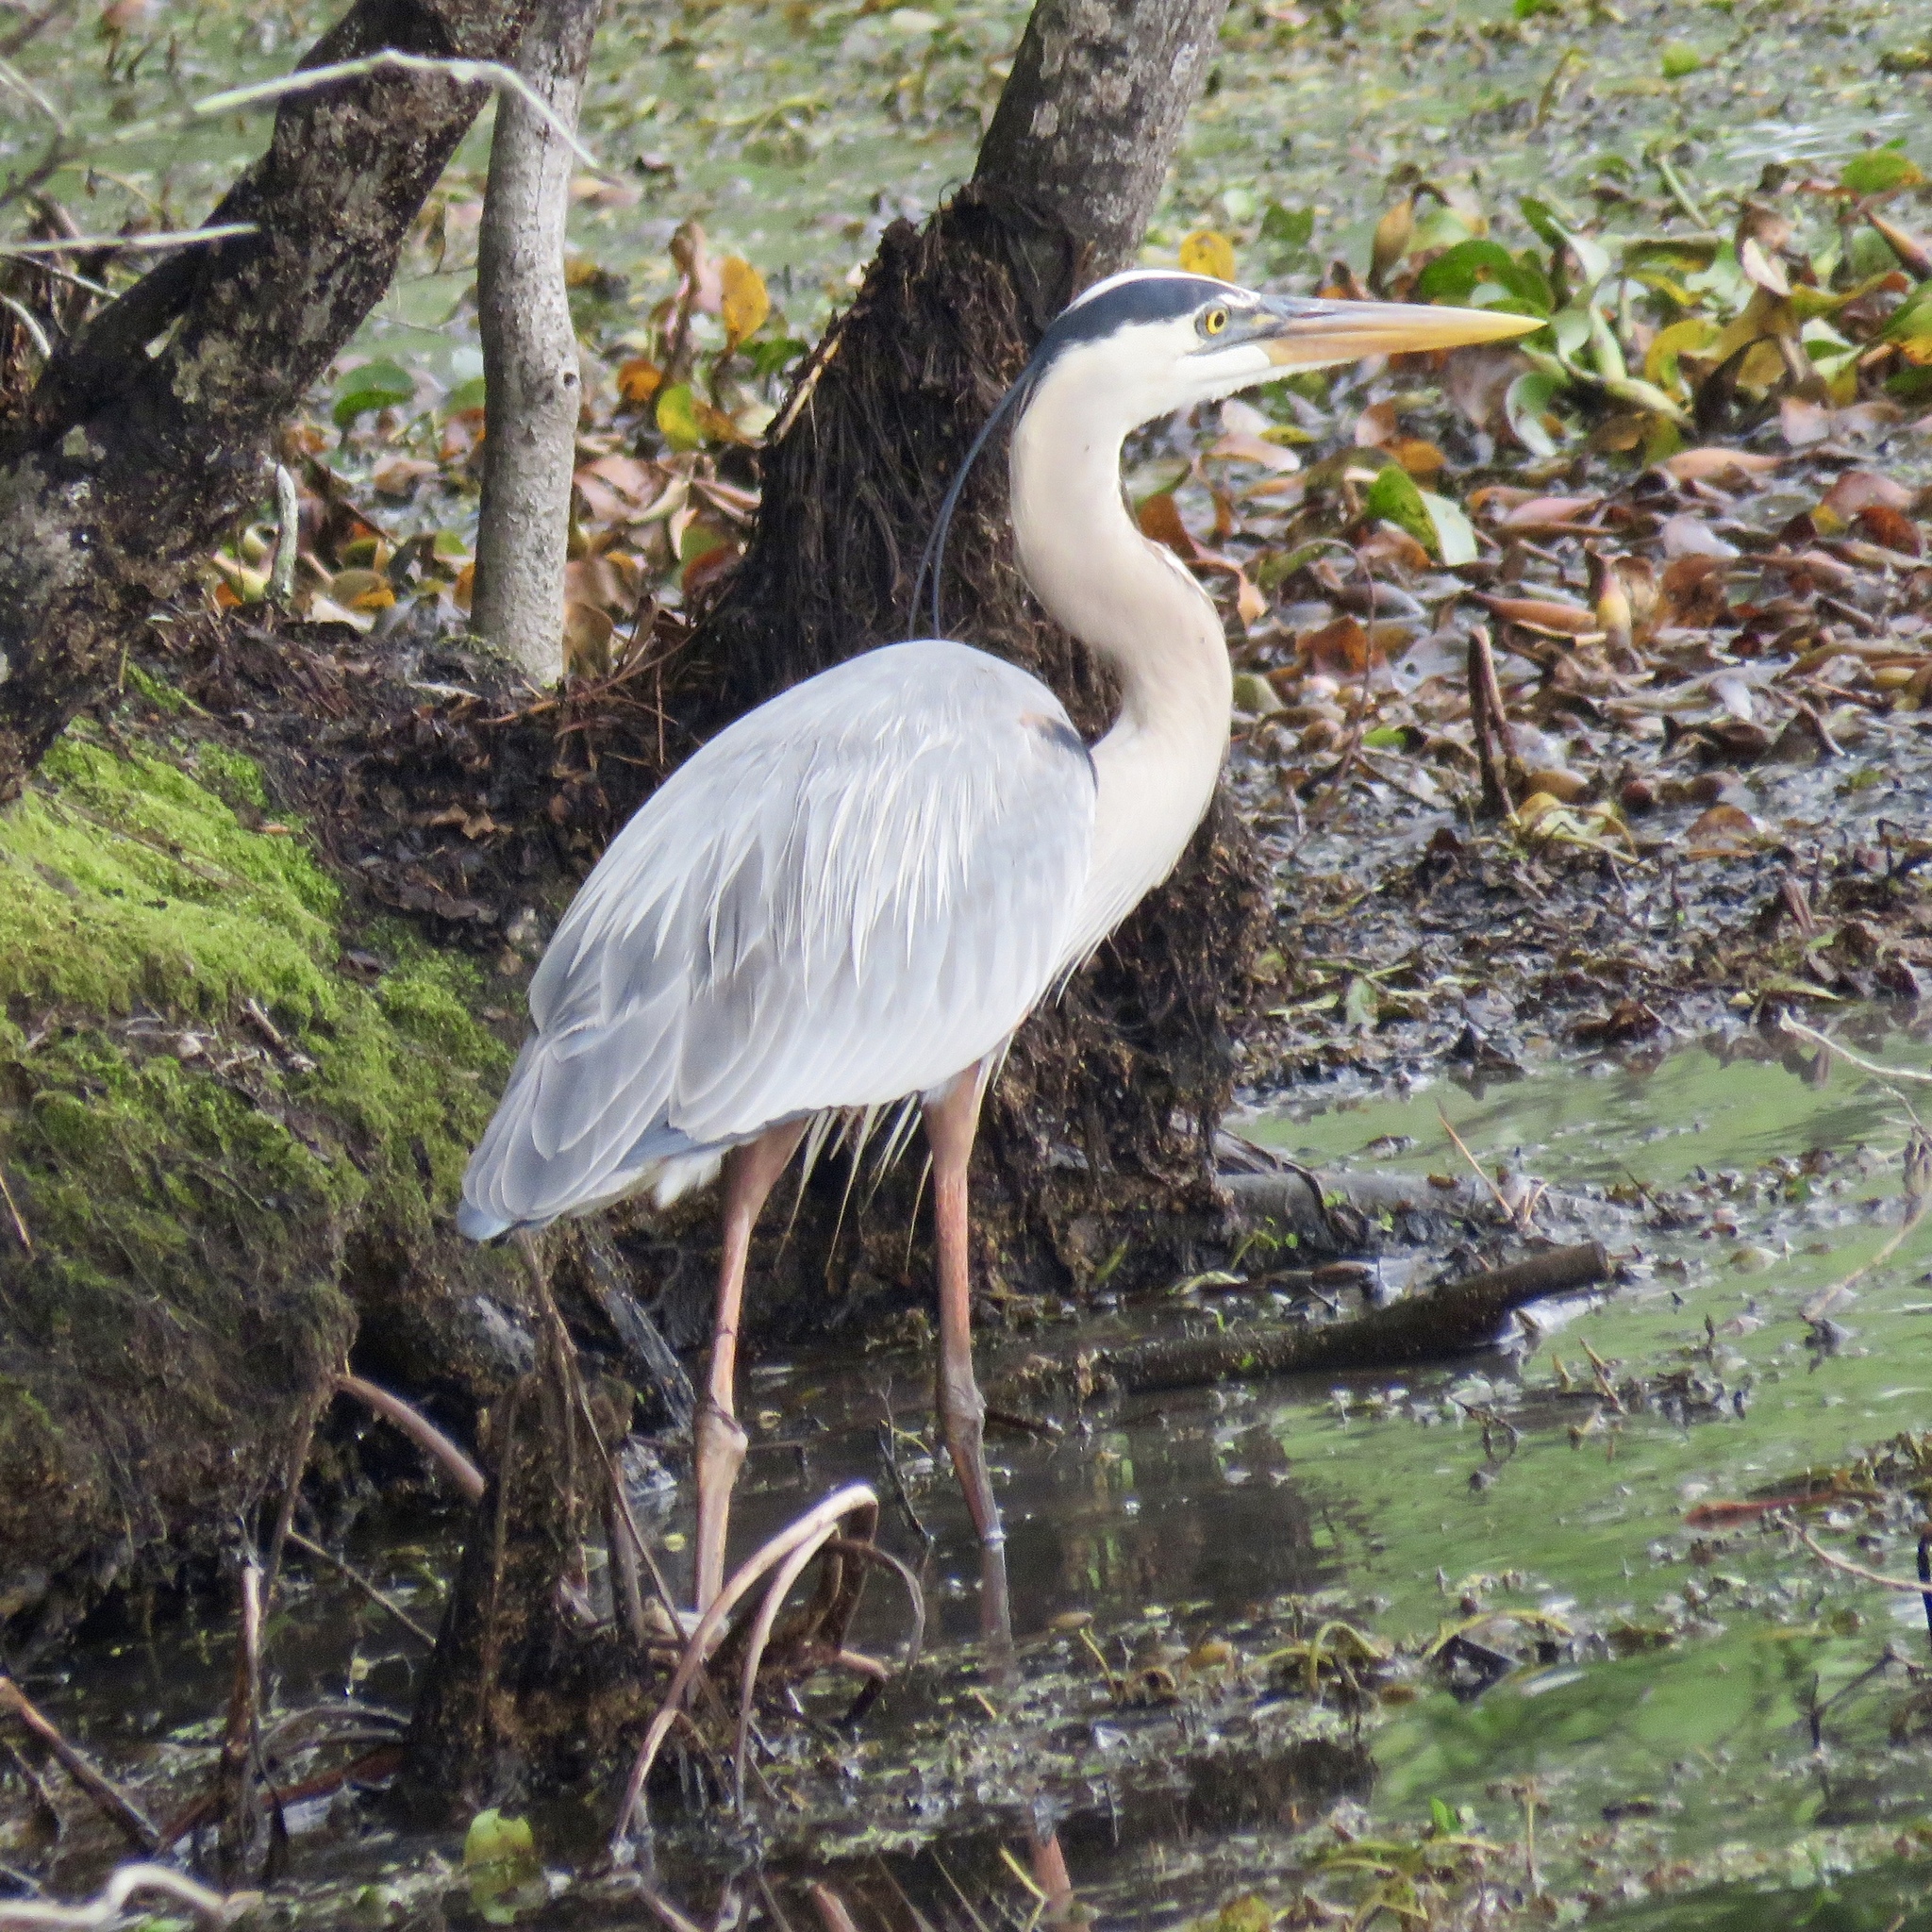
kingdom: Animalia
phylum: Chordata
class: Aves
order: Pelecaniformes
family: Ardeidae
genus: Ardea
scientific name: Ardea herodias
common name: Great blue heron
